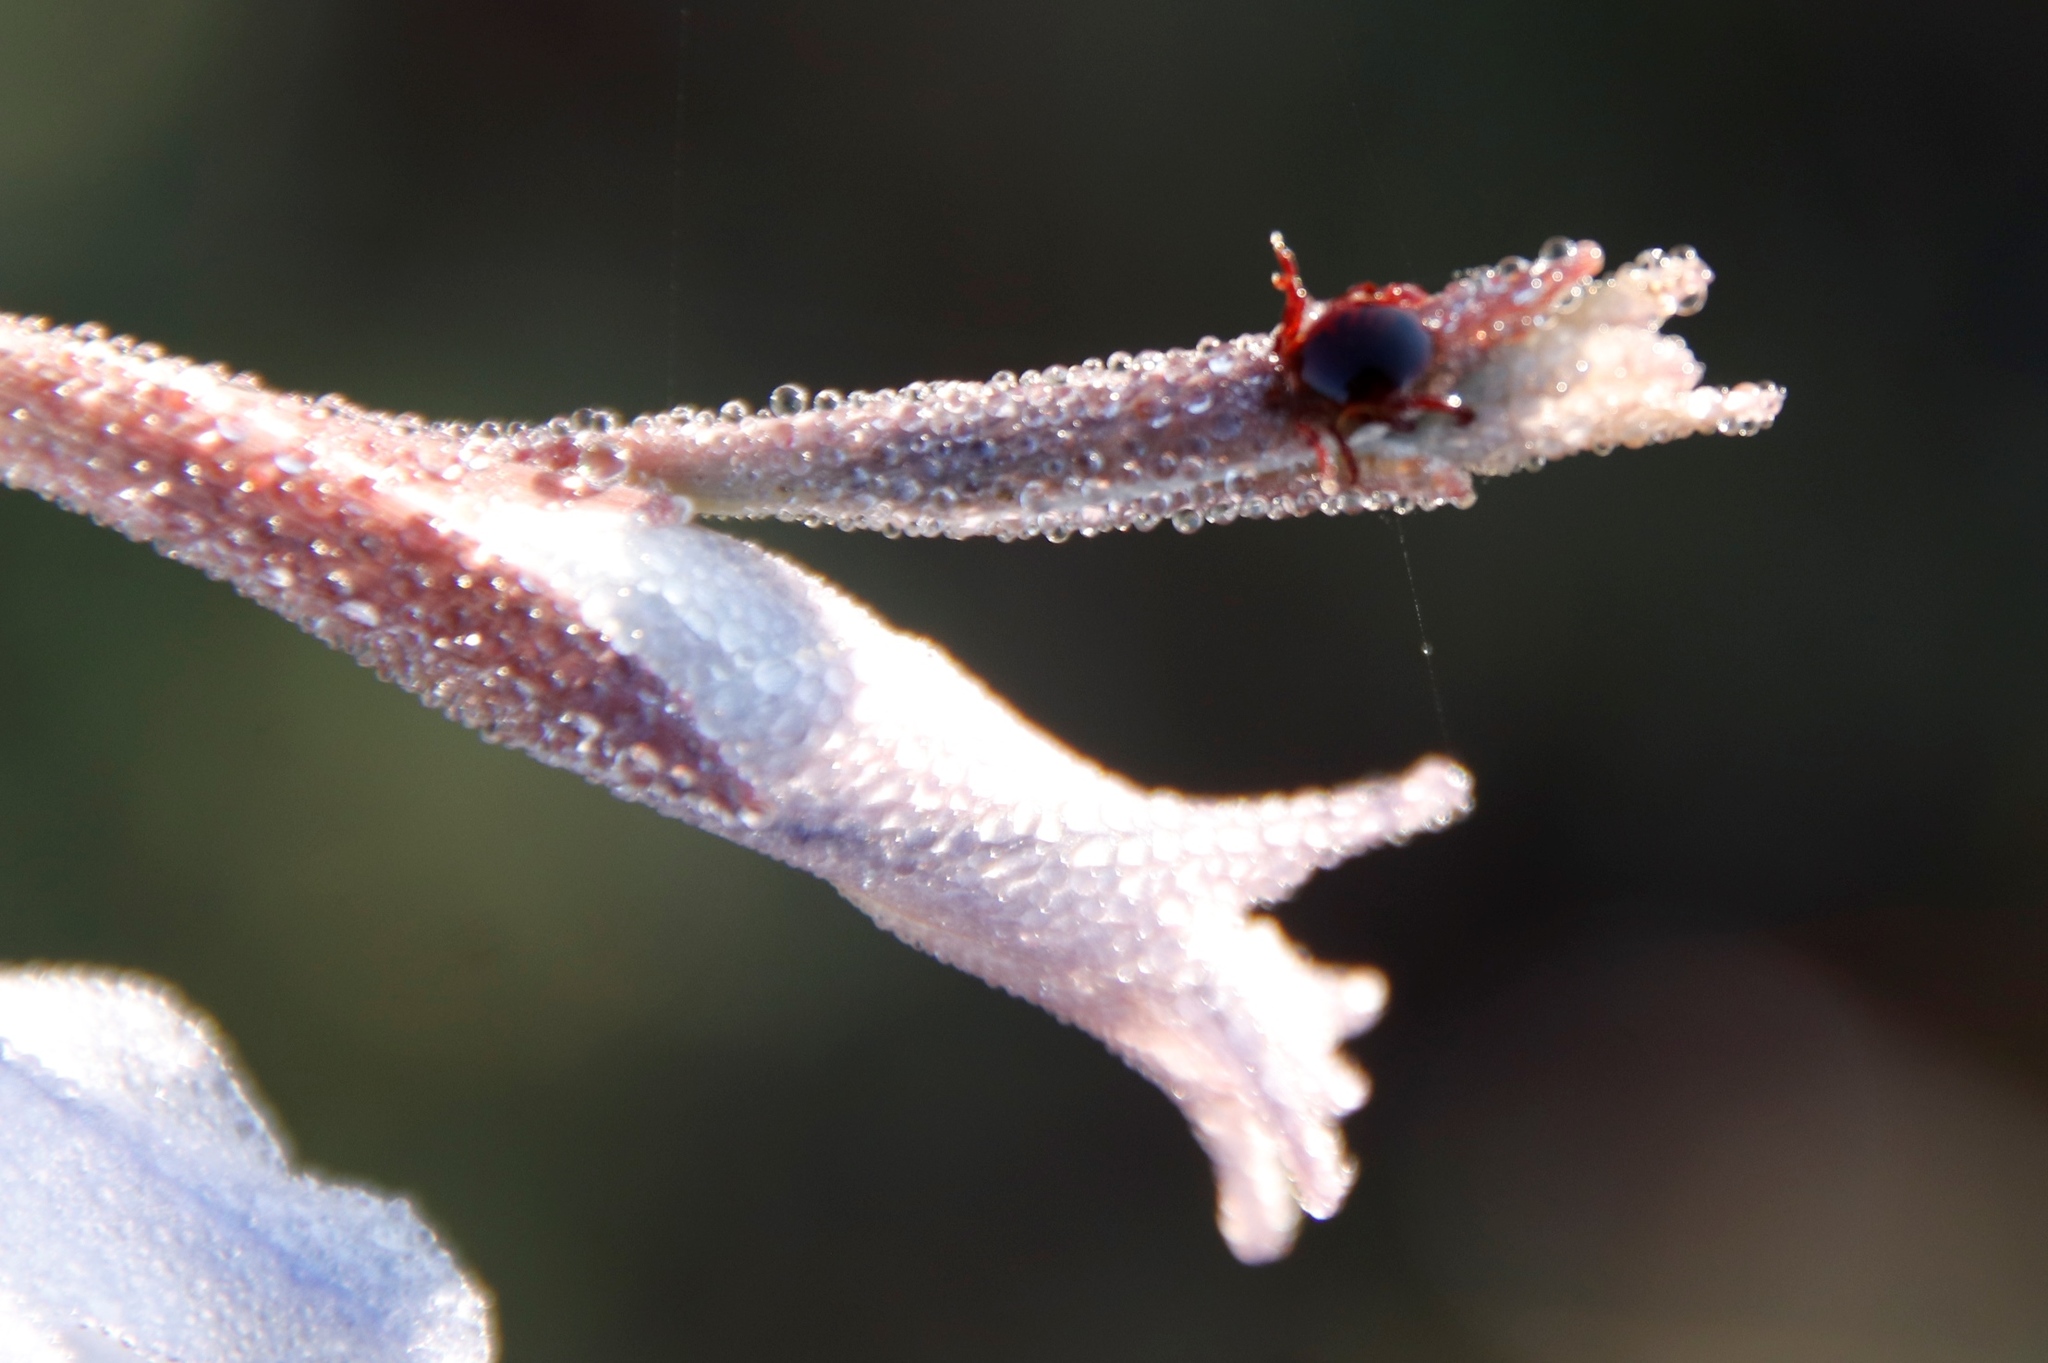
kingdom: Plantae
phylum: Tracheophyta
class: Liliopsida
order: Asparagales
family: Iridaceae
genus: Gladiolus
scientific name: Gladiolus gracilis
